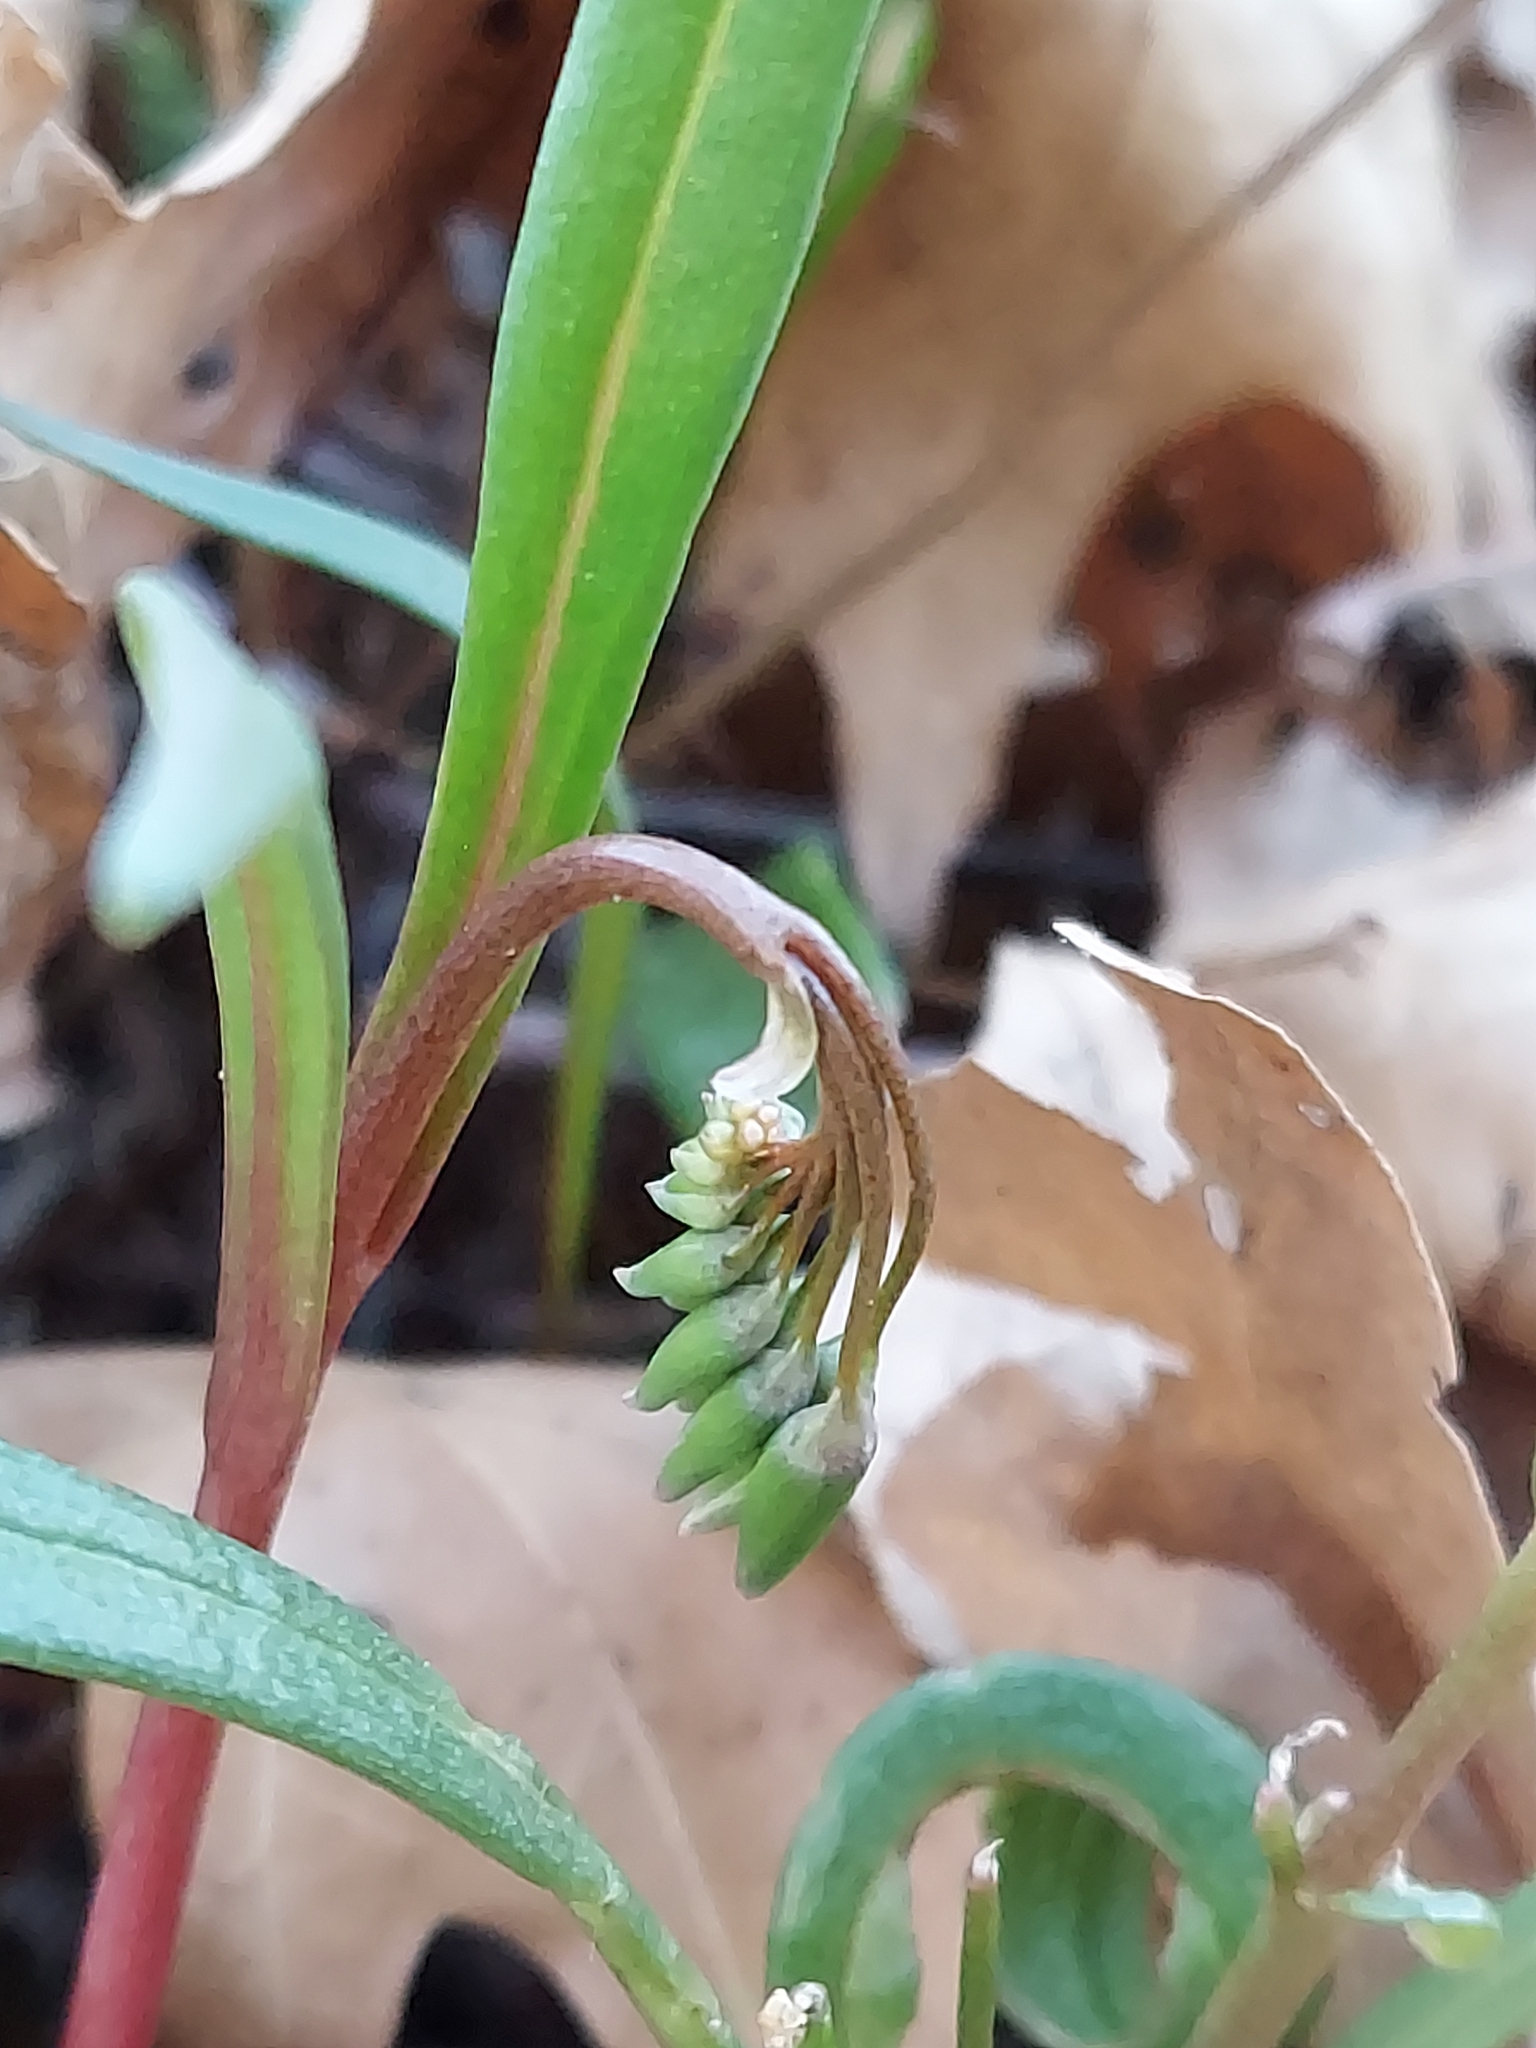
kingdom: Plantae
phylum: Tracheophyta
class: Magnoliopsida
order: Caryophyllales
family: Montiaceae
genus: Claytonia
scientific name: Claytonia virginica
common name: Virginia springbeauty
